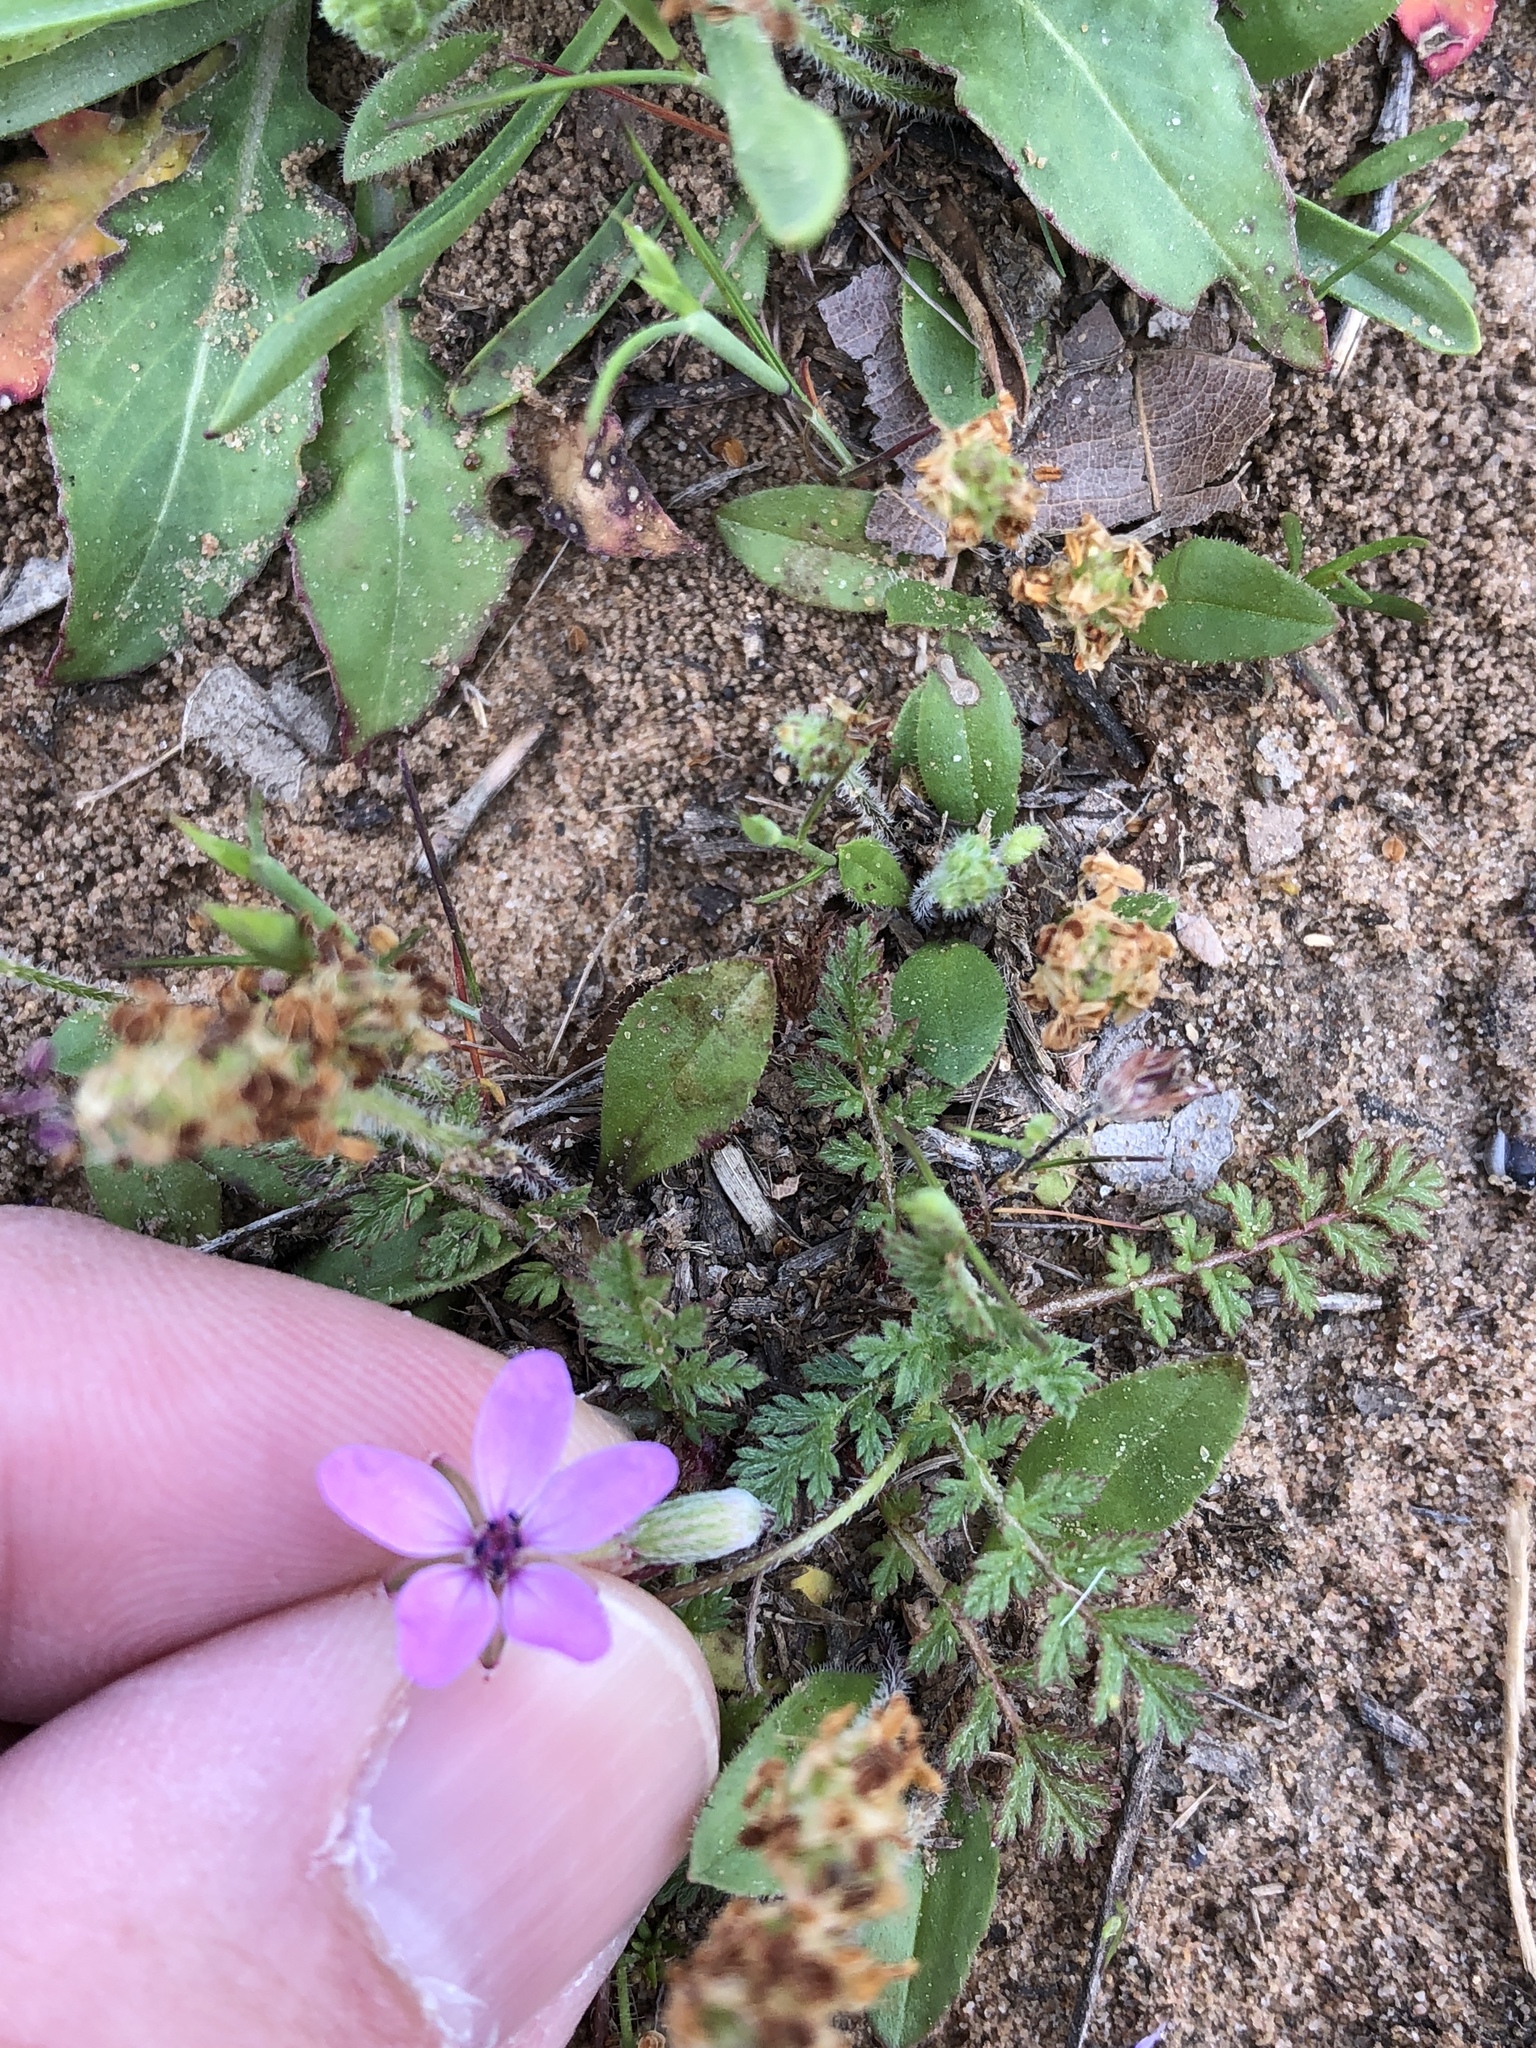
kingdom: Plantae
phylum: Tracheophyta
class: Magnoliopsida
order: Geraniales
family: Geraniaceae
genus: Erodium
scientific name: Erodium cicutarium
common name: Common stork's-bill
